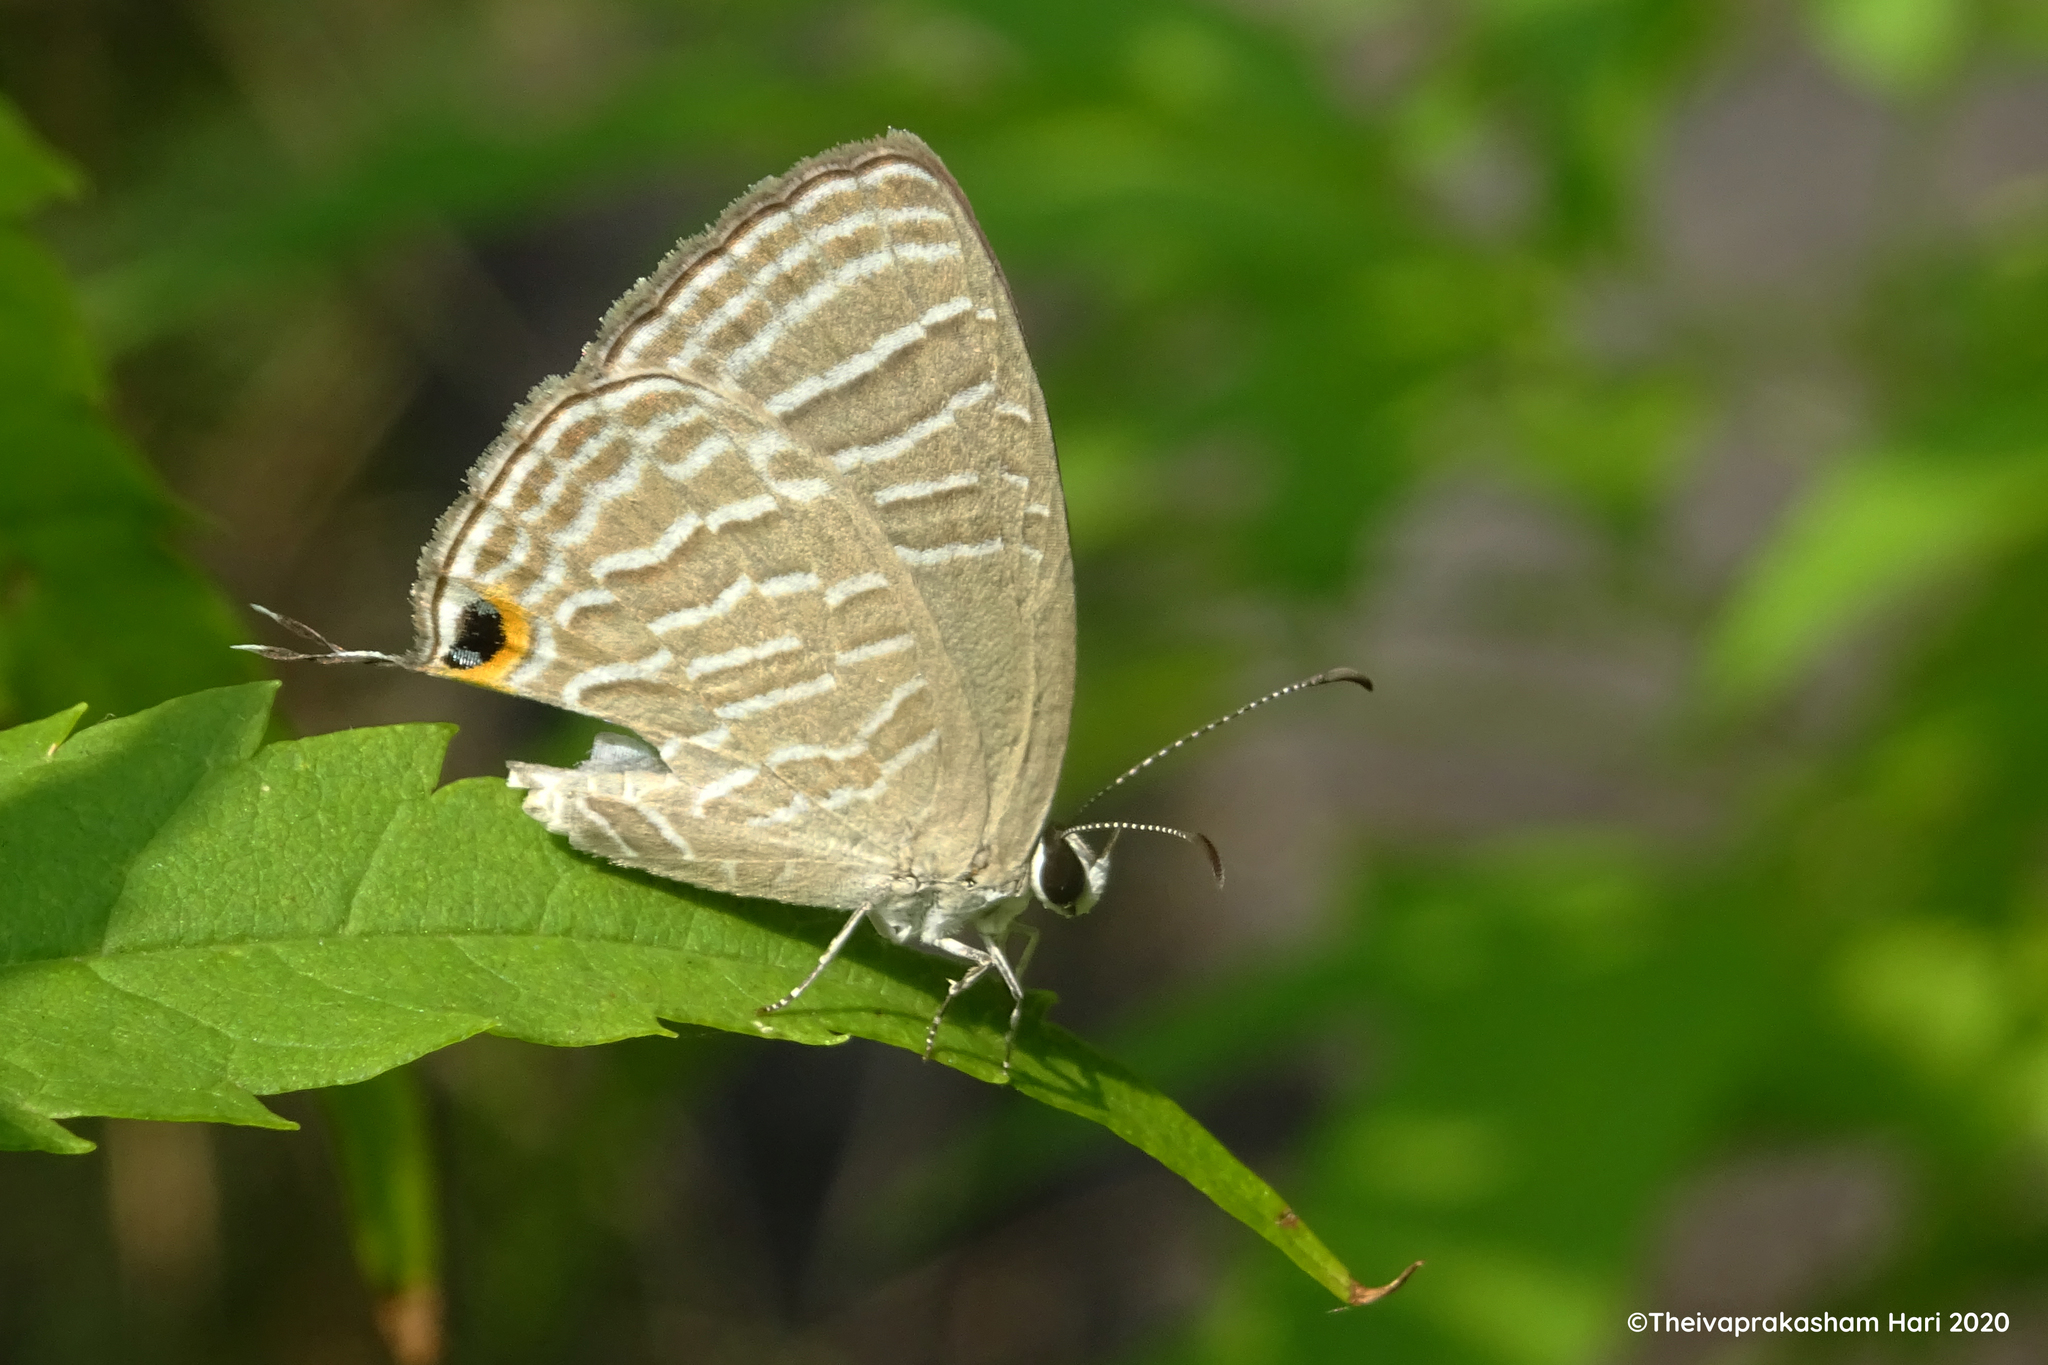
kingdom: Animalia
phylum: Arthropoda
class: Insecta
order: Lepidoptera
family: Lycaenidae
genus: Jamides
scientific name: Jamides celeno
